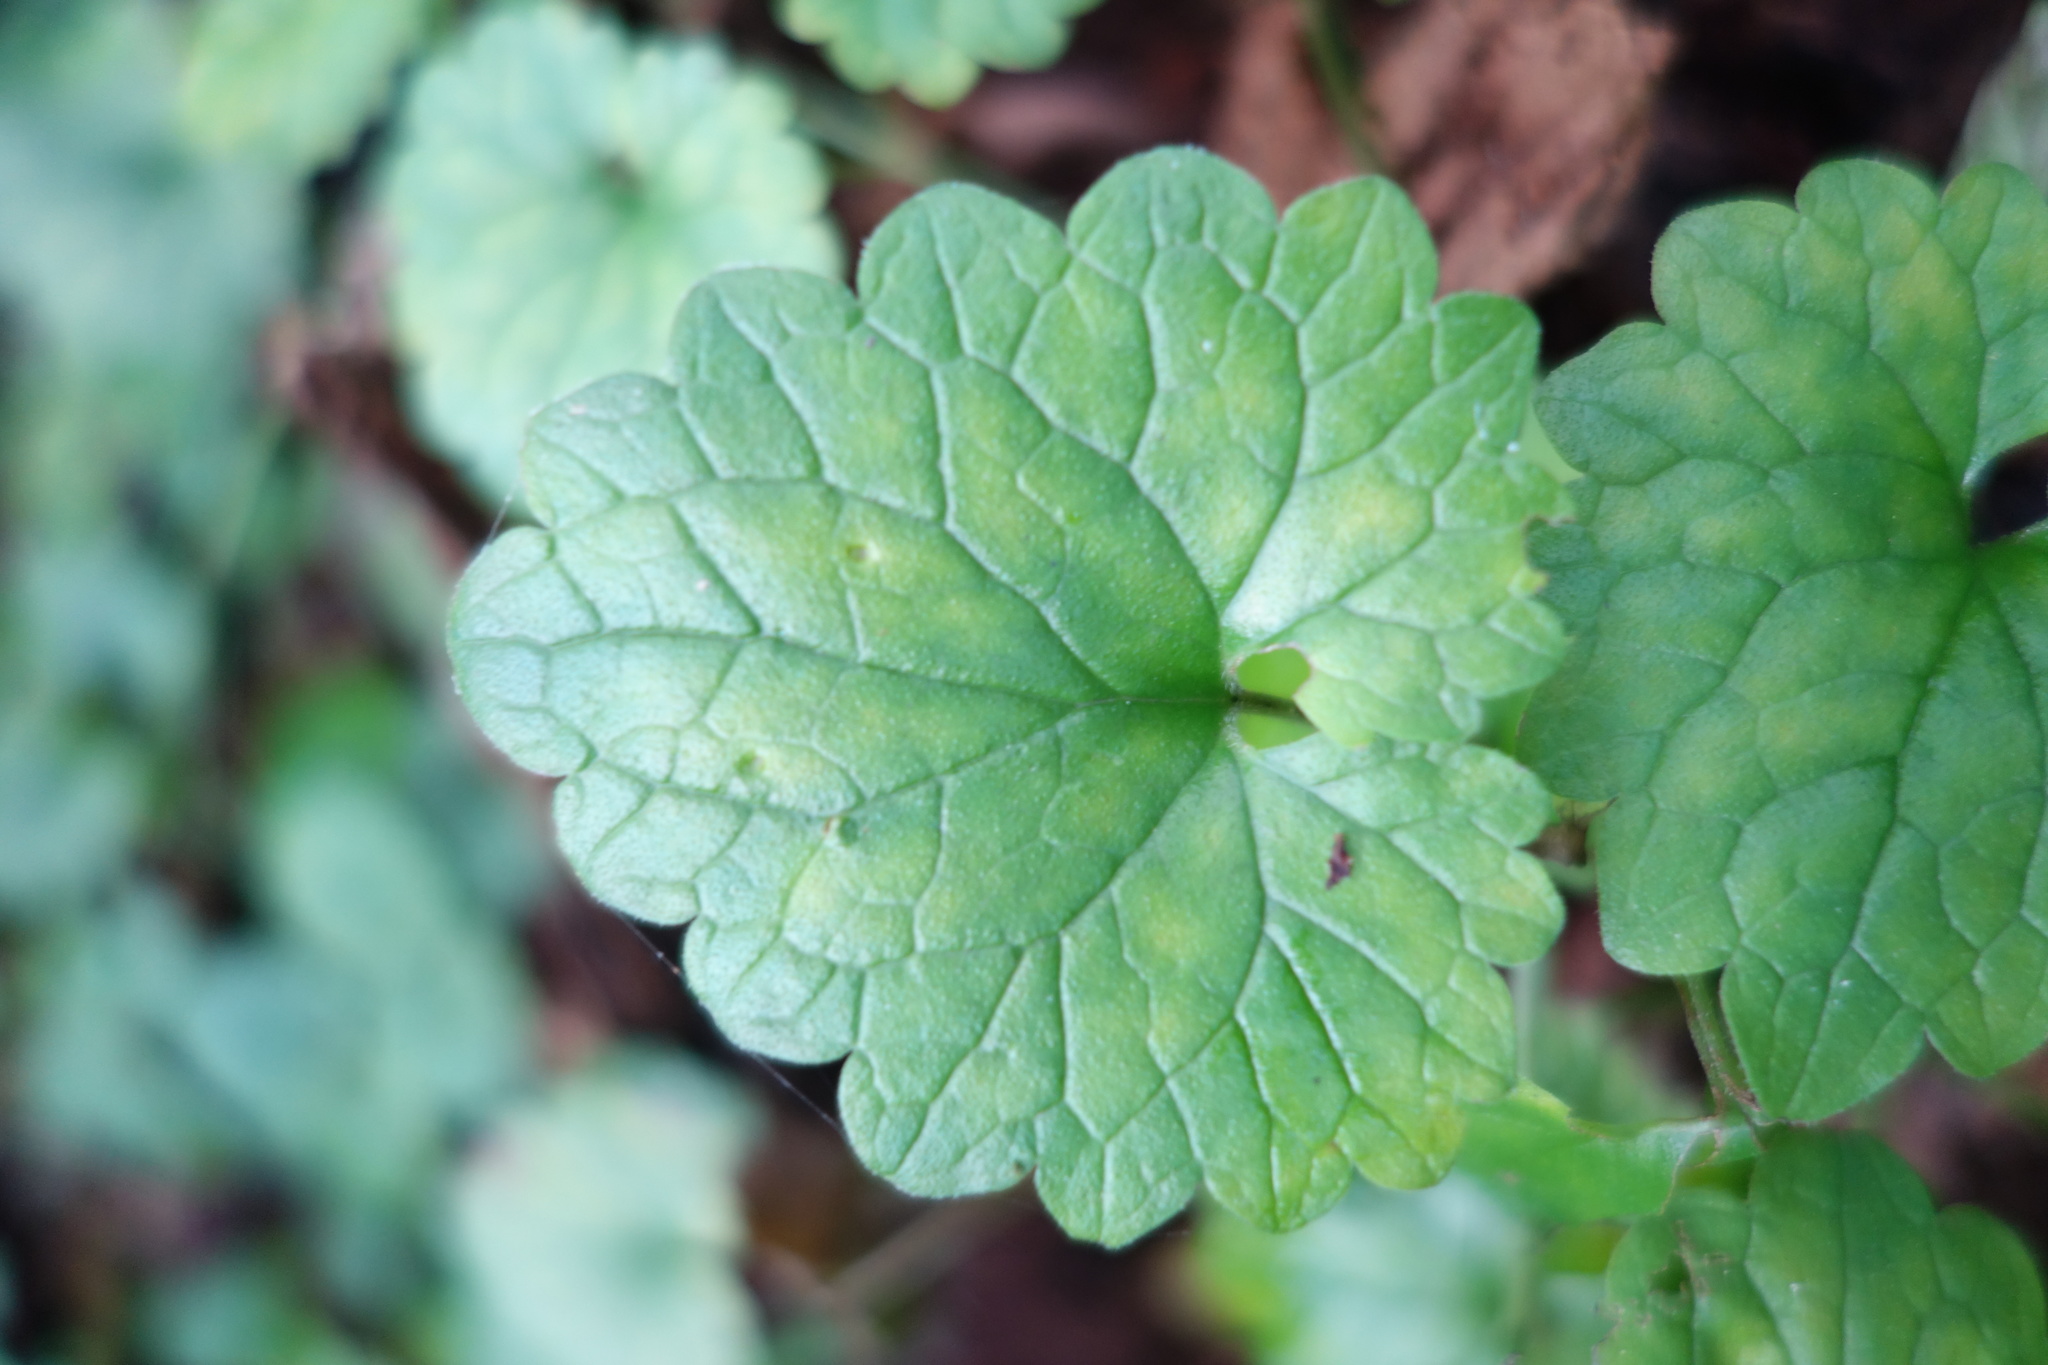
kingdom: Plantae
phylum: Tracheophyta
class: Magnoliopsida
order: Lamiales
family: Lamiaceae
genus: Glechoma
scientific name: Glechoma hederacea
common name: Ground ivy
